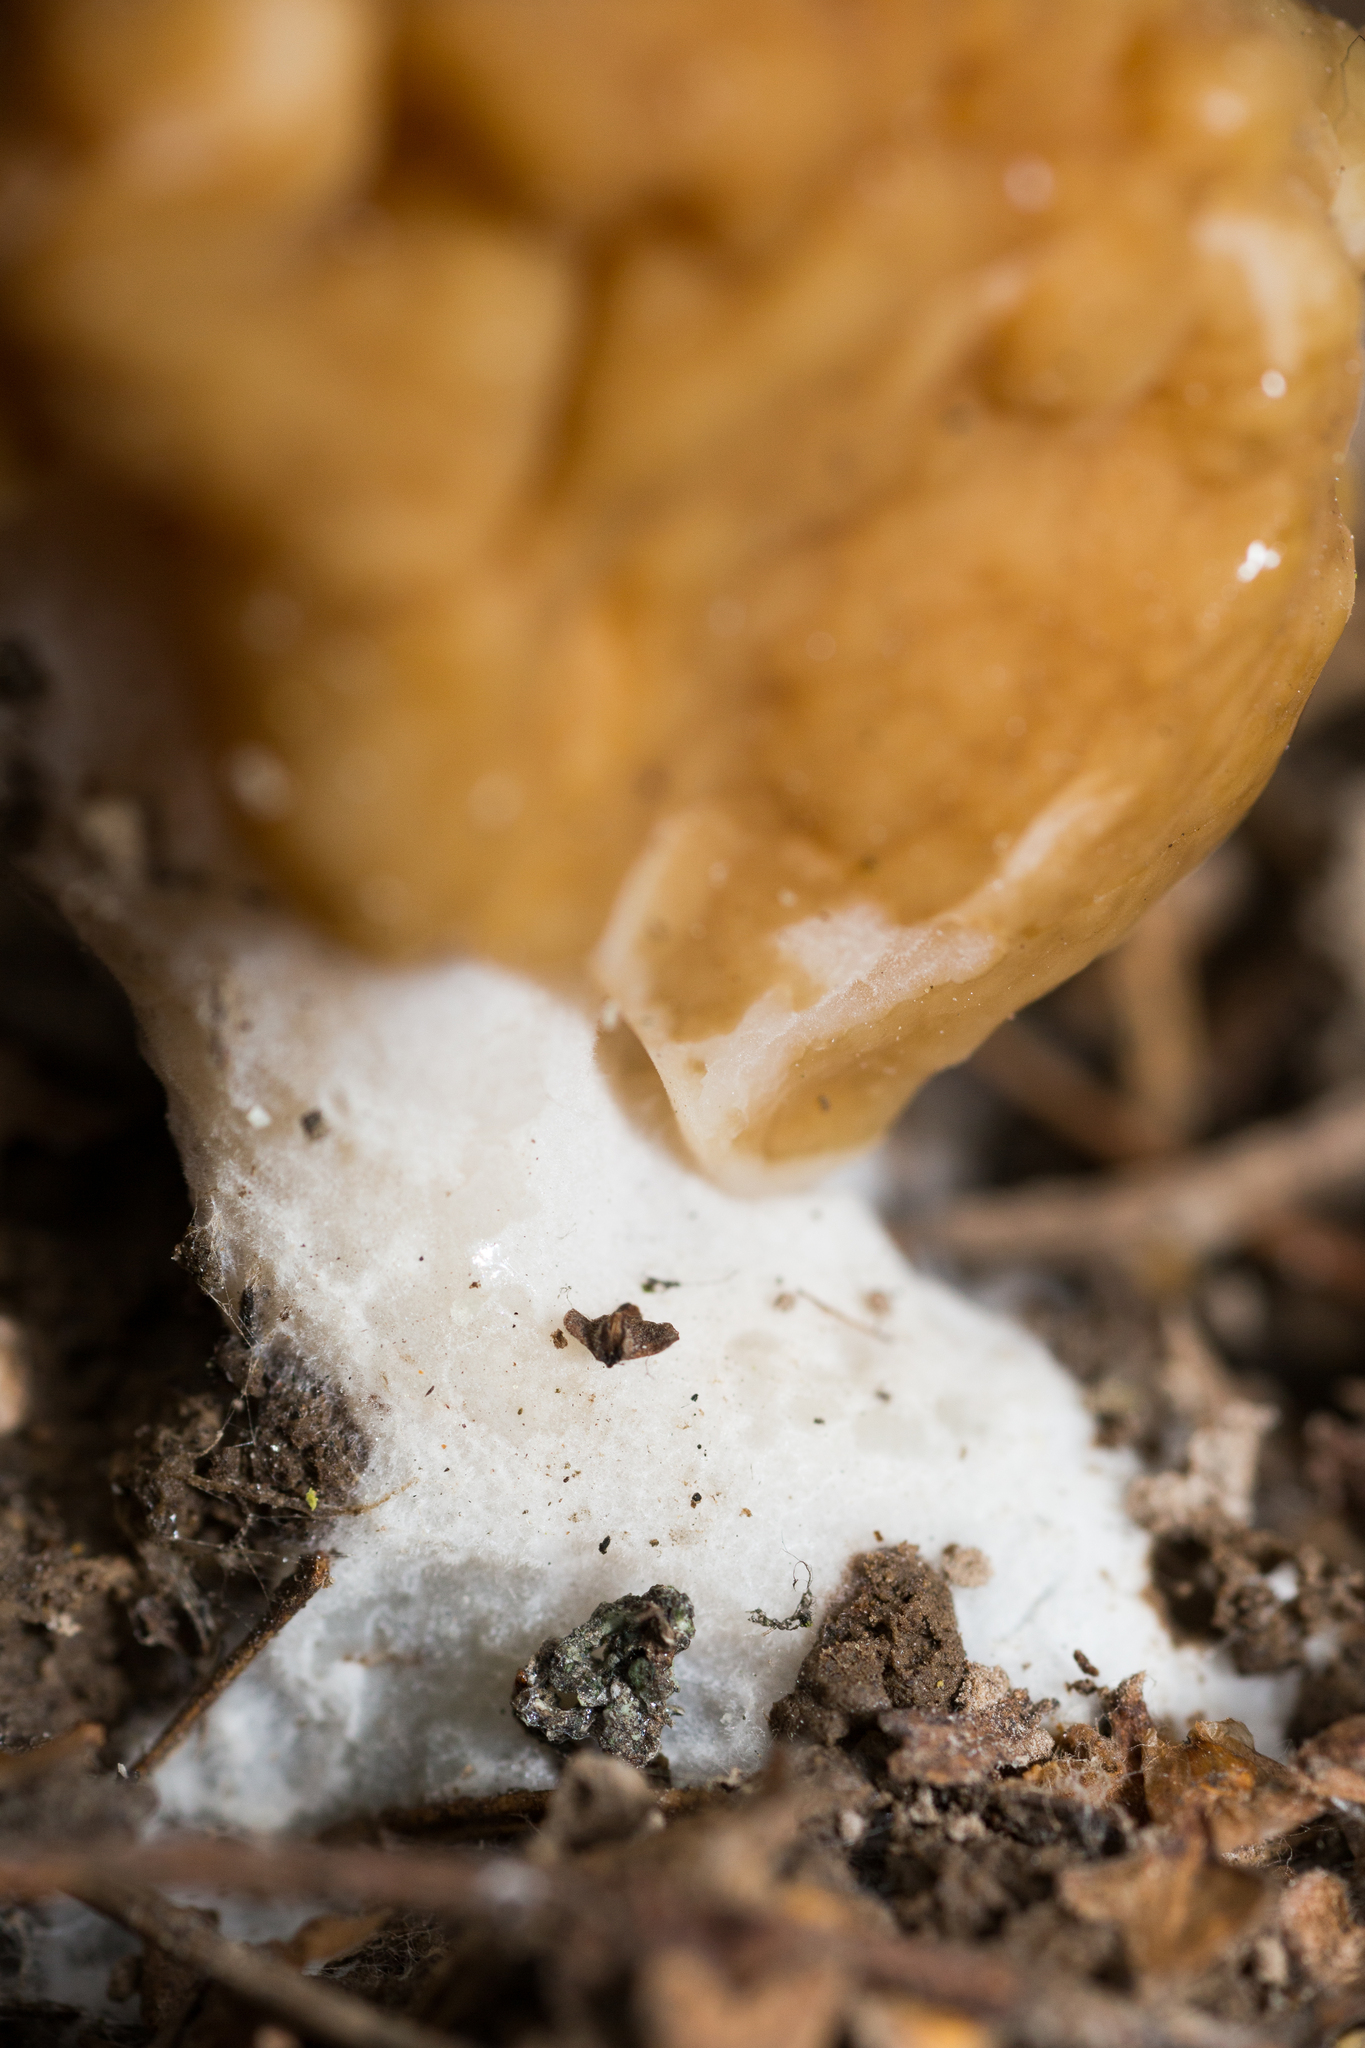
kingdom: Fungi
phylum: Ascomycota
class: Pezizomycetes
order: Pezizales
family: Discinaceae
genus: Gyromitra
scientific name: Gyromitra gigas
